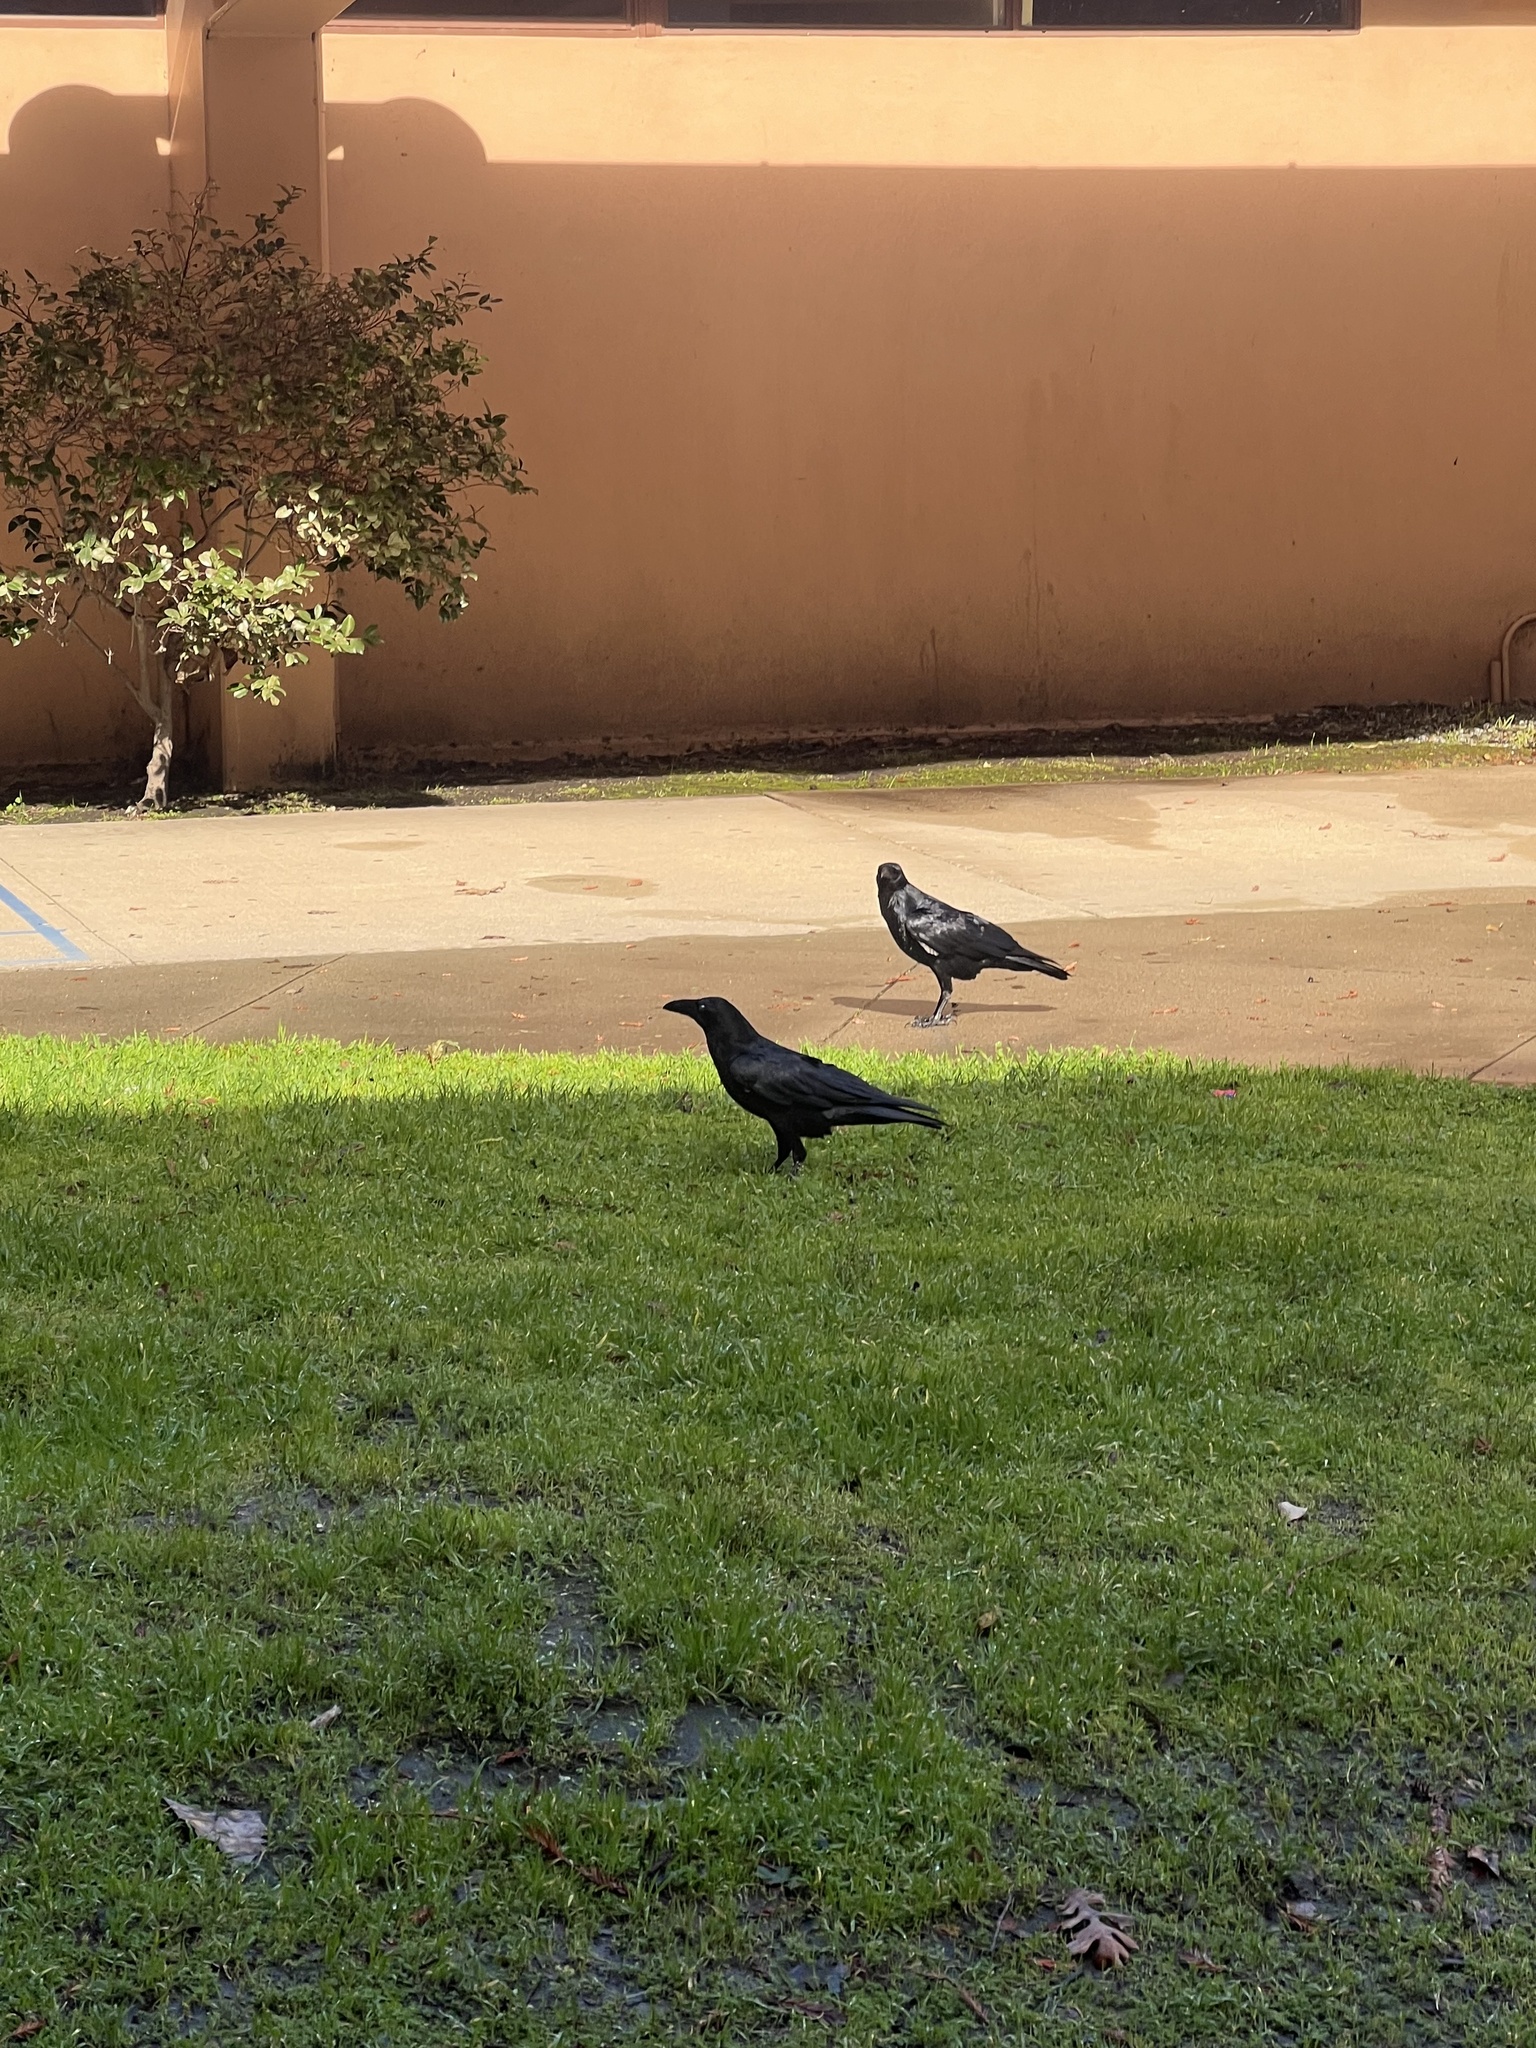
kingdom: Animalia
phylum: Chordata
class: Aves
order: Passeriformes
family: Corvidae
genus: Corvus
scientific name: Corvus corax
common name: Common raven
